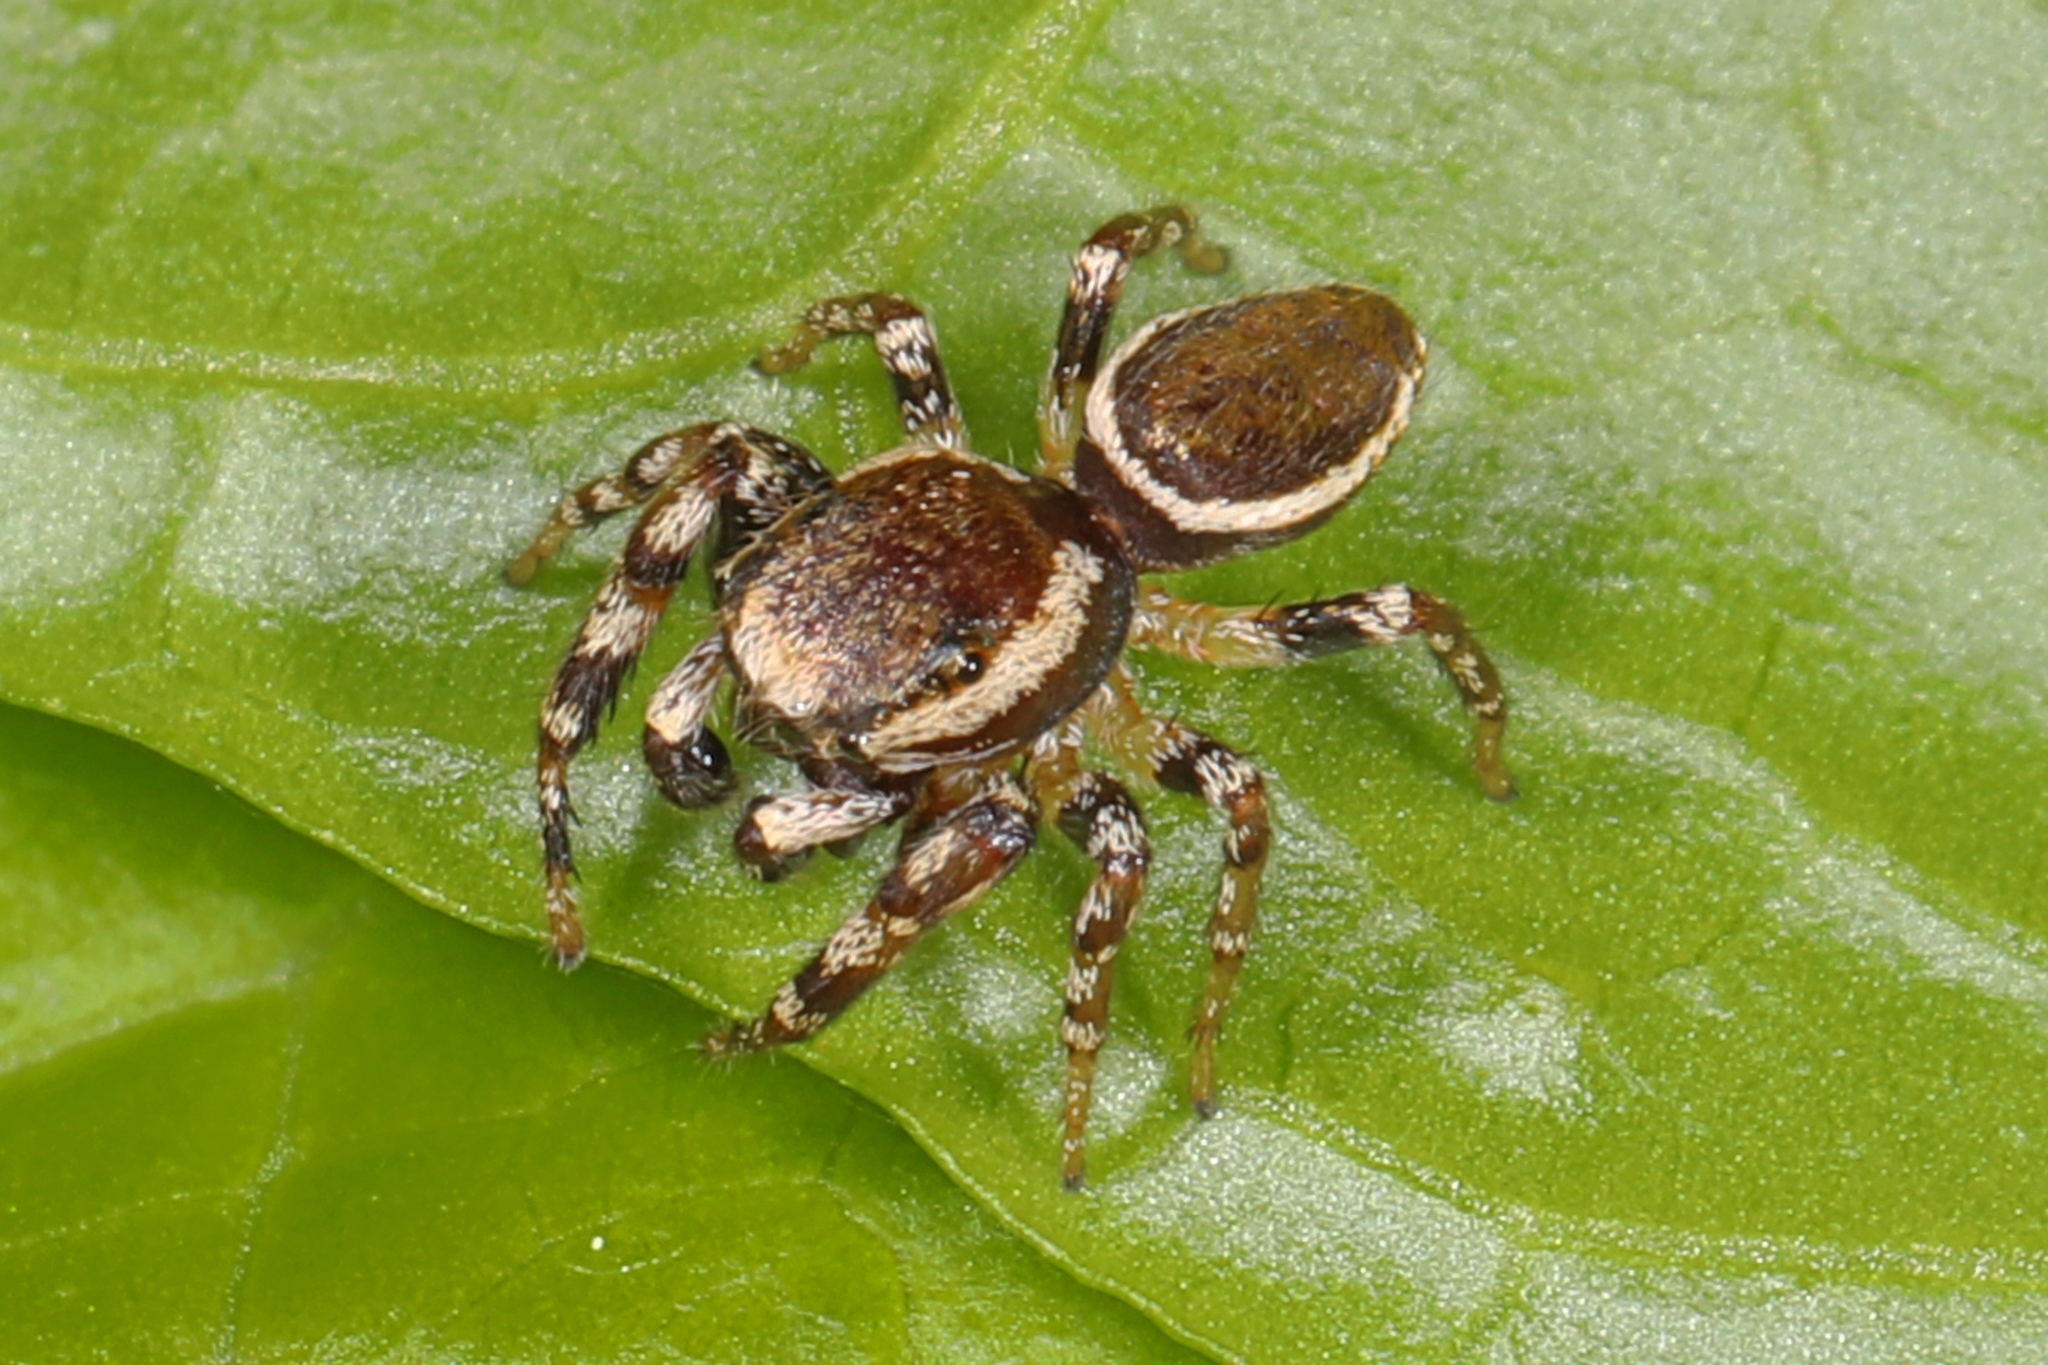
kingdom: Animalia
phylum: Arthropoda
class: Arachnida
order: Araneae
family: Salticidae
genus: Pelegrina
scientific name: Pelegrina proterva
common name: Common white-cheeked jumping spider
